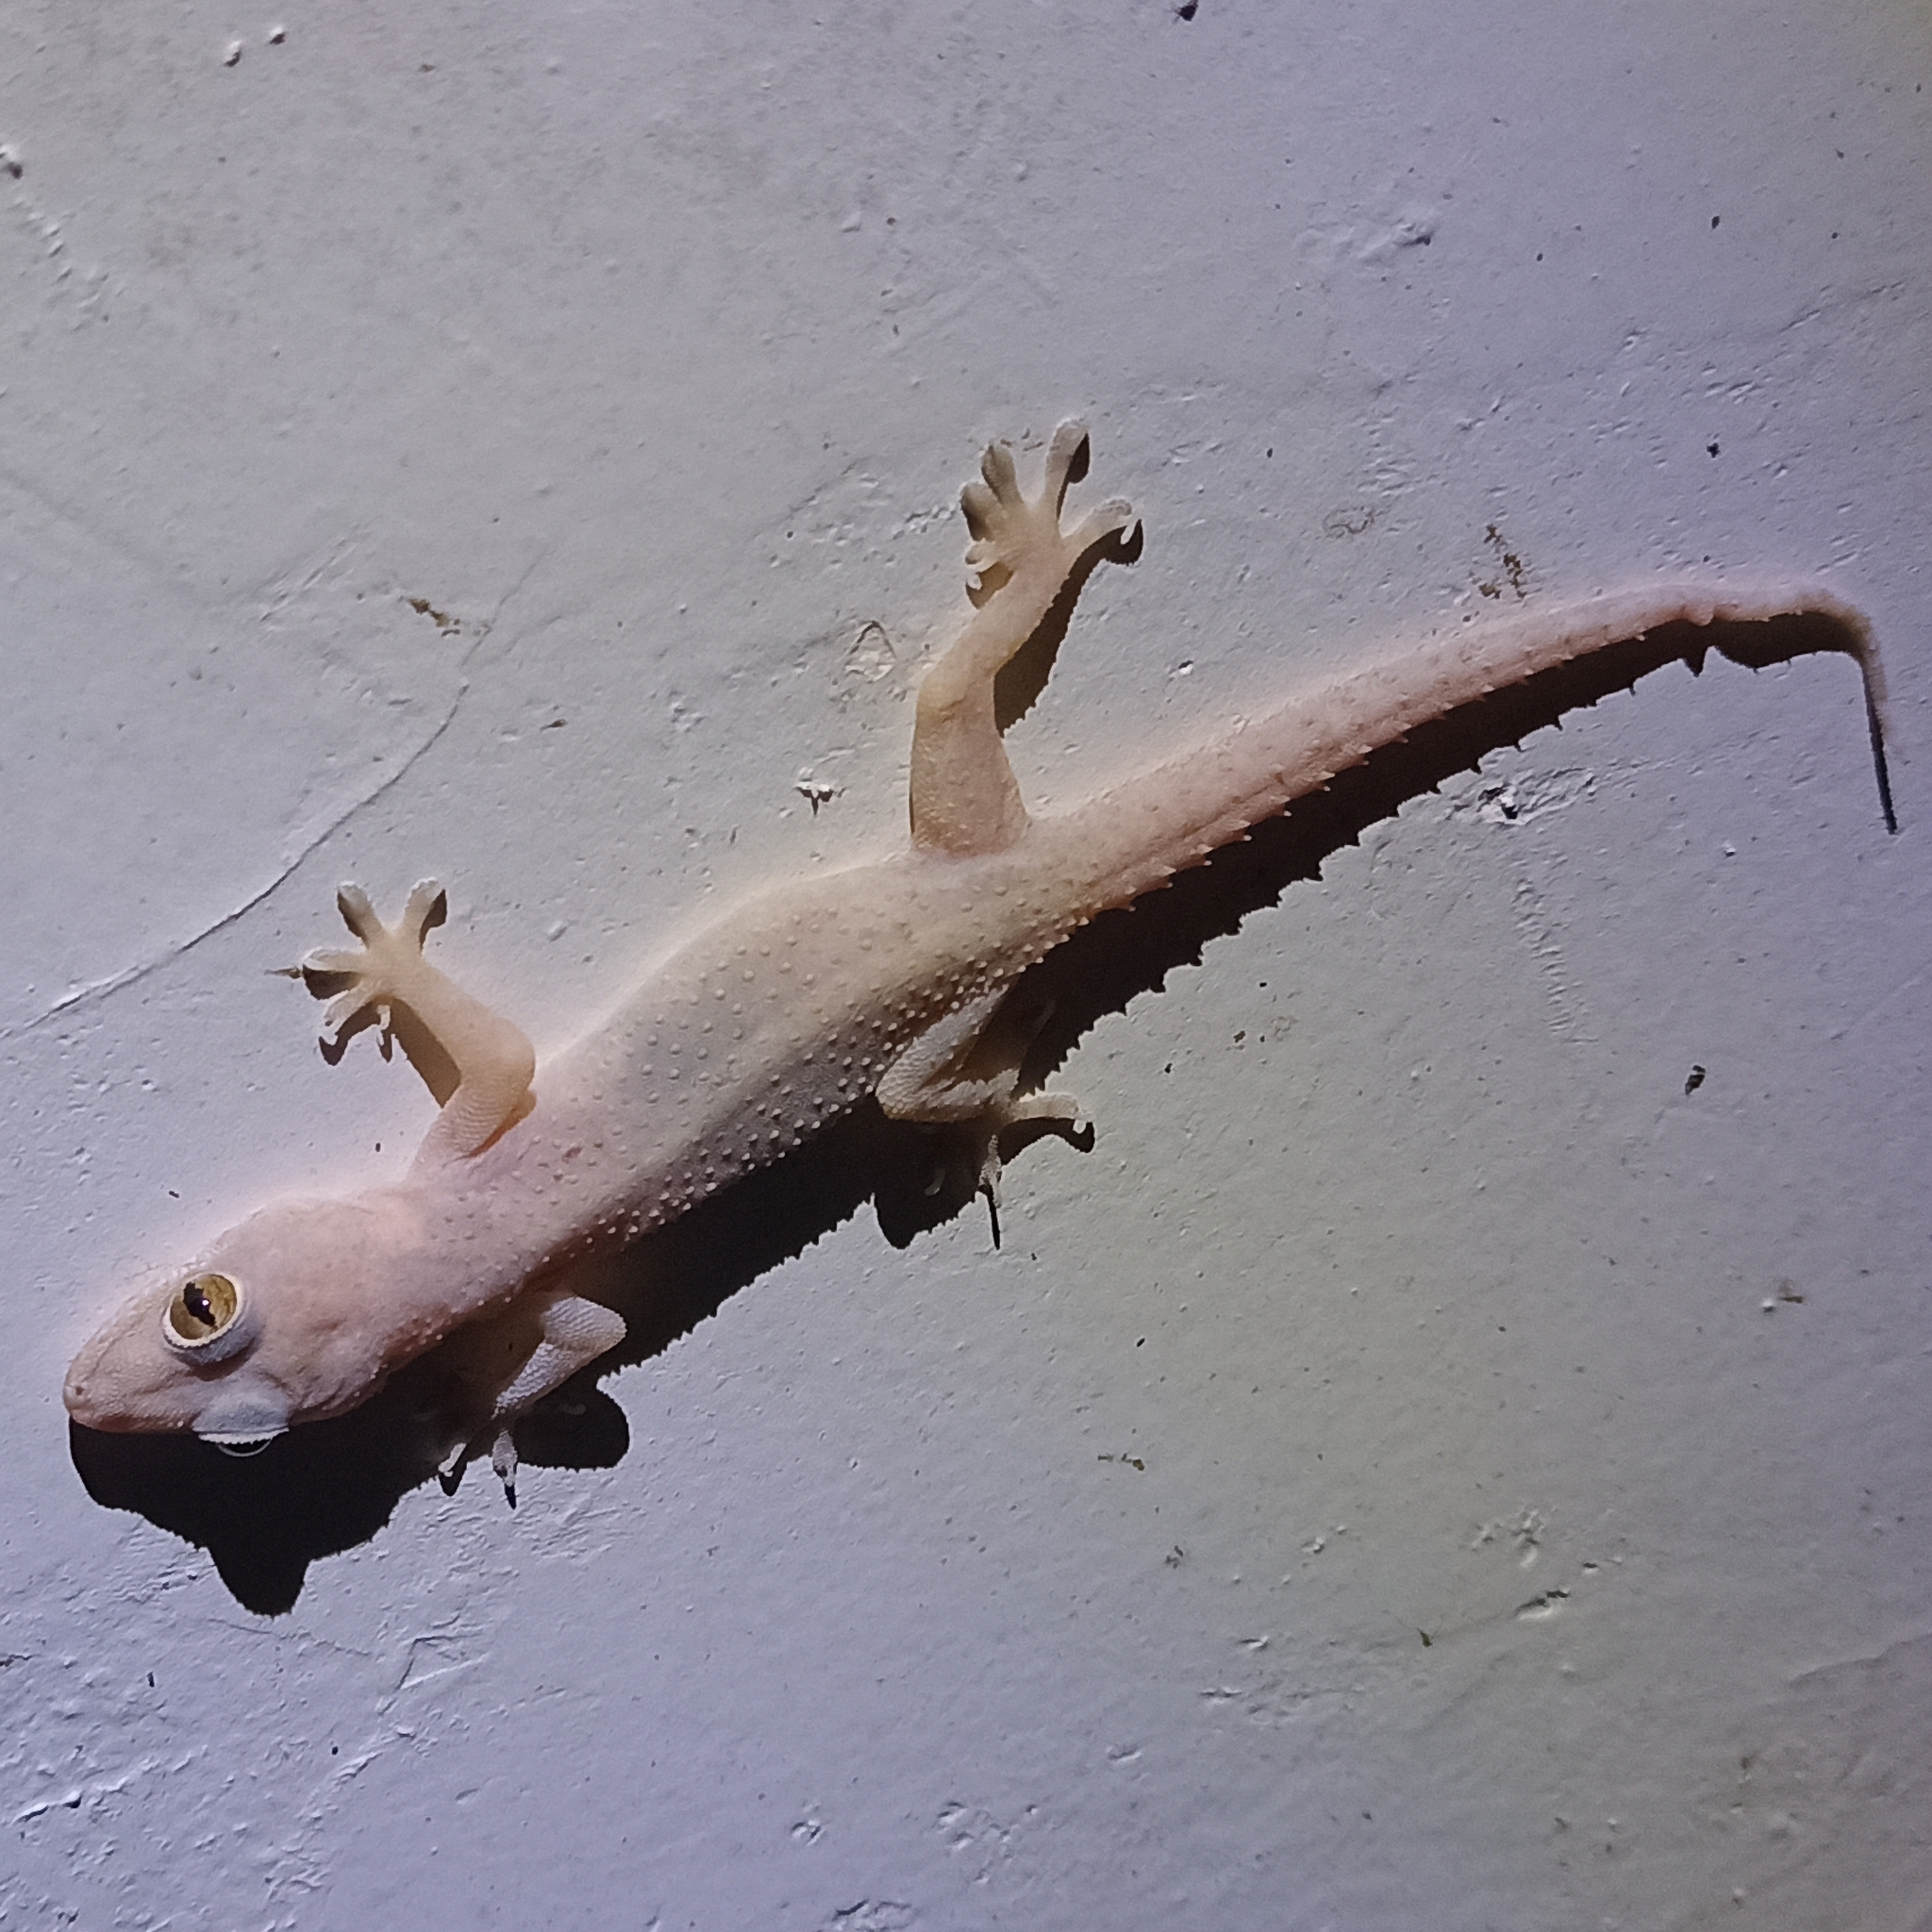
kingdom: Animalia
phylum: Chordata
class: Squamata
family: Gekkonidae
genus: Hemidactylus
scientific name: Hemidactylus mabouia
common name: House gecko
